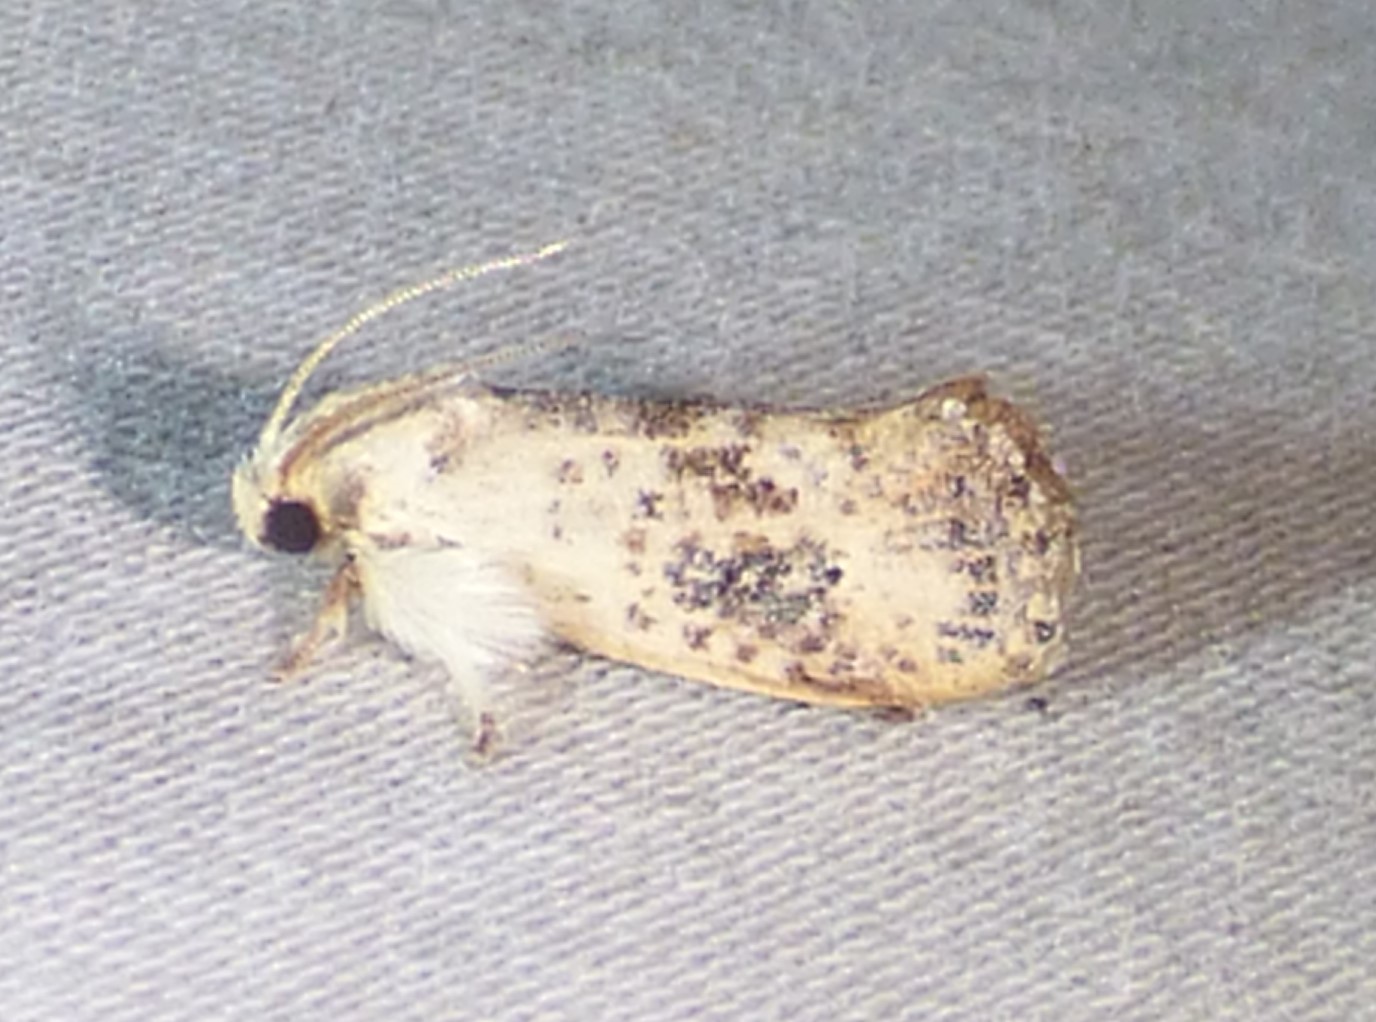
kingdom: Animalia
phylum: Arthropoda
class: Insecta
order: Lepidoptera
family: Tineidae
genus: Acrolophus
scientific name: Acrolophus mycetophagus
